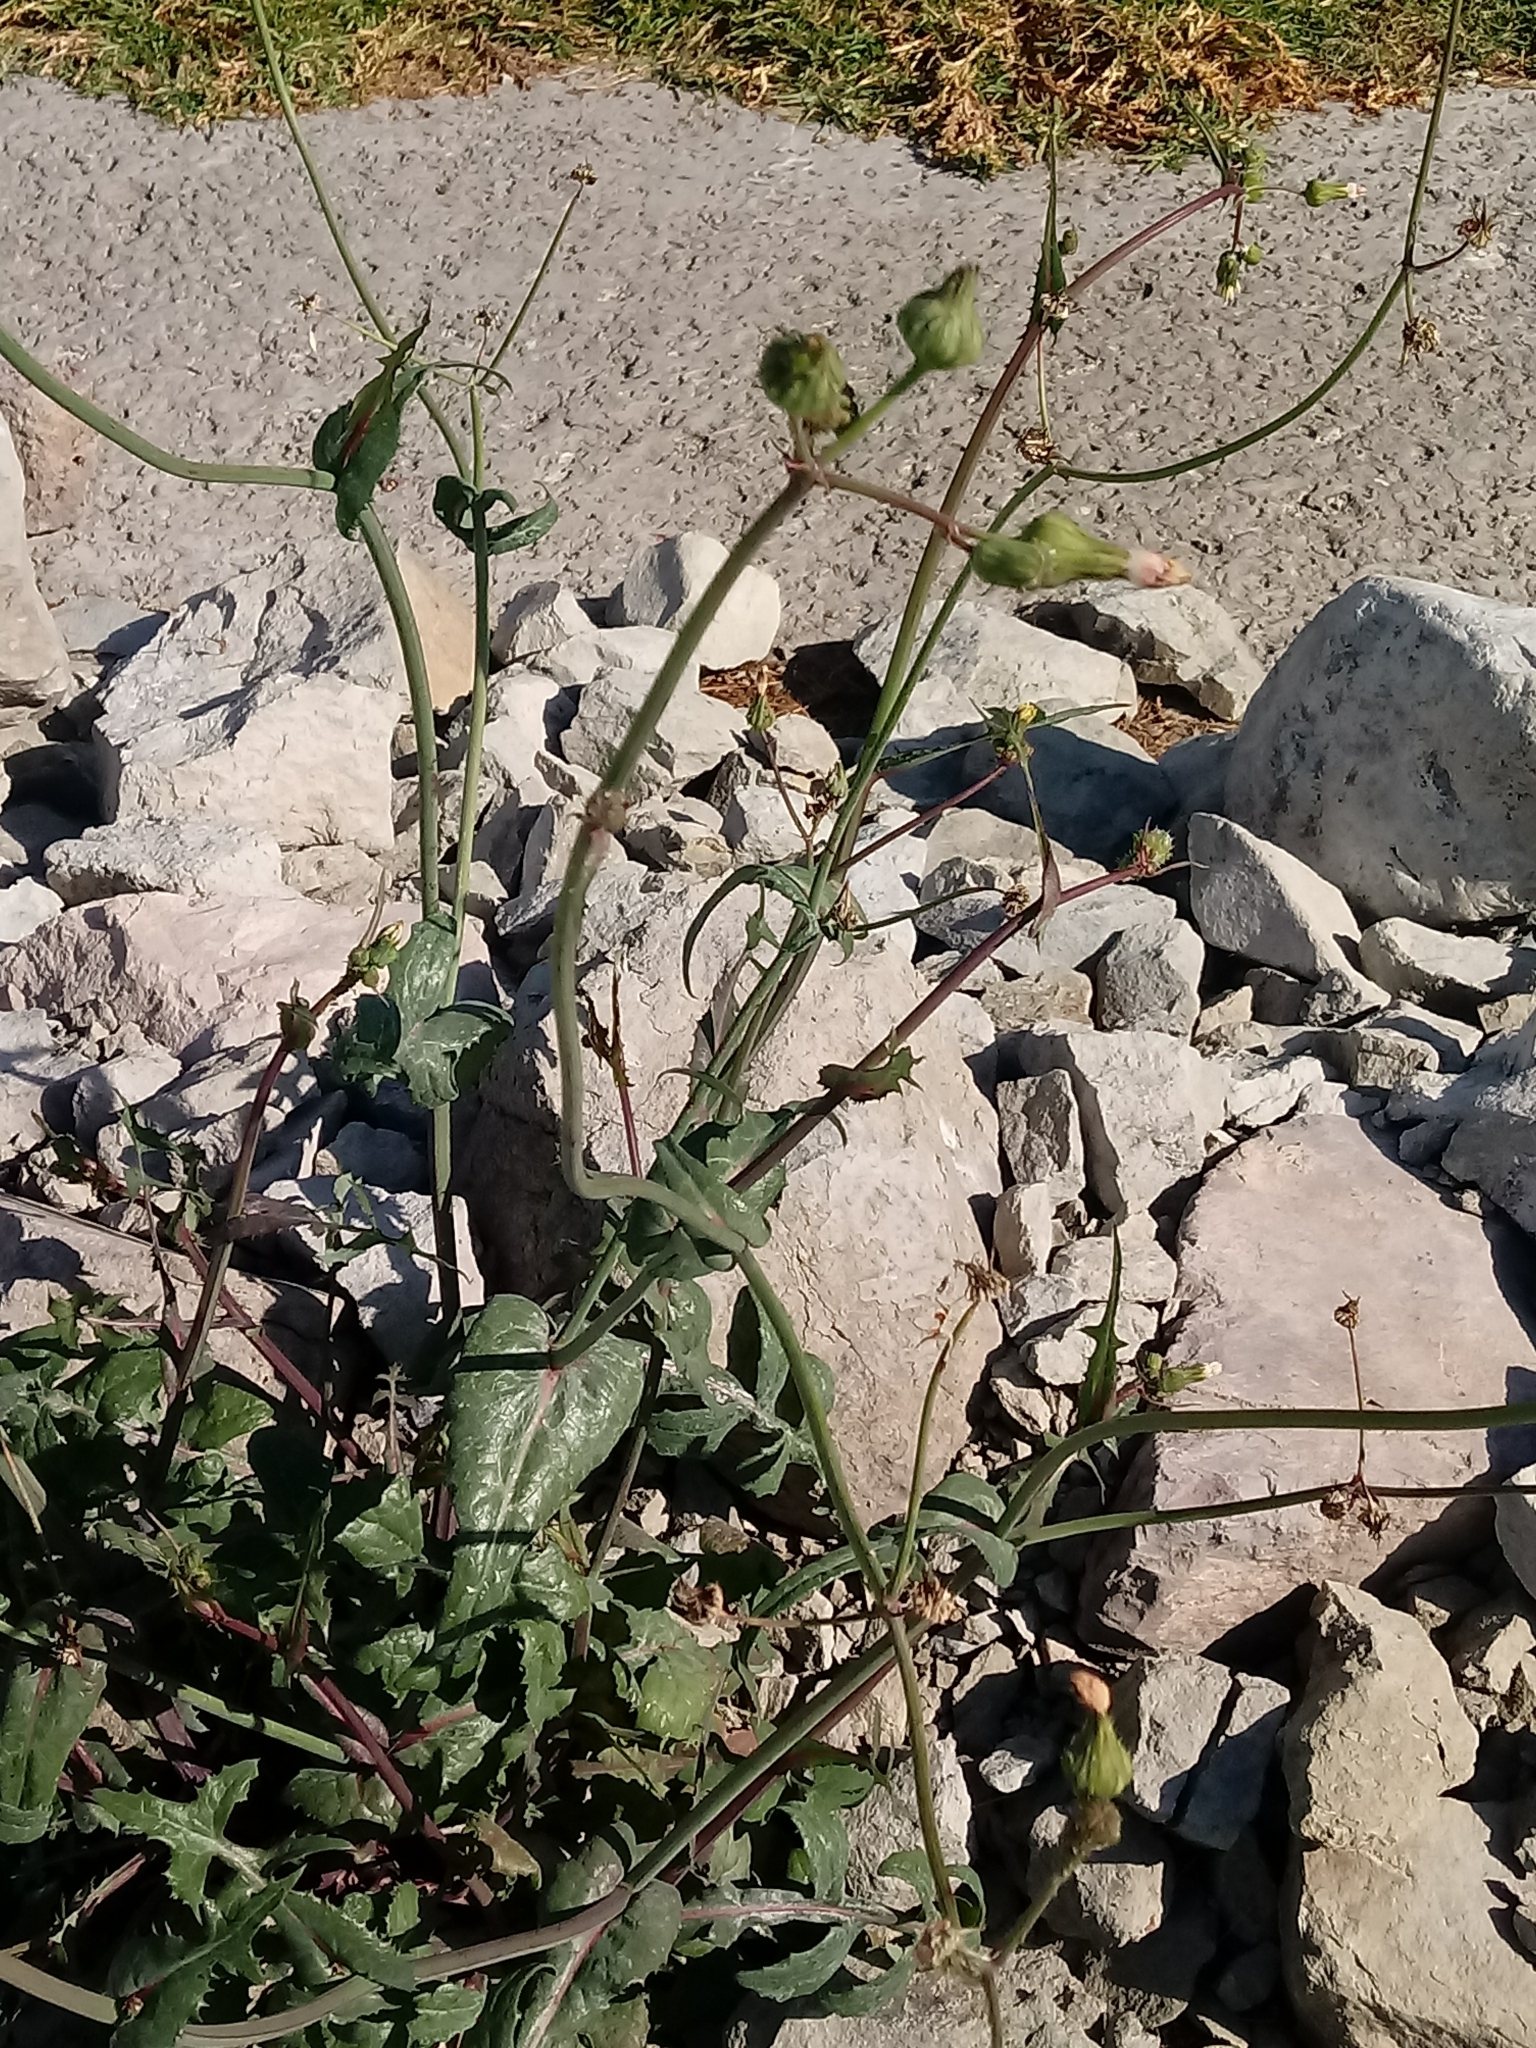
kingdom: Plantae
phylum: Tracheophyta
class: Magnoliopsida
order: Asterales
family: Asteraceae
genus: Sonchus
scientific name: Sonchus oleraceus
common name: Common sowthistle
